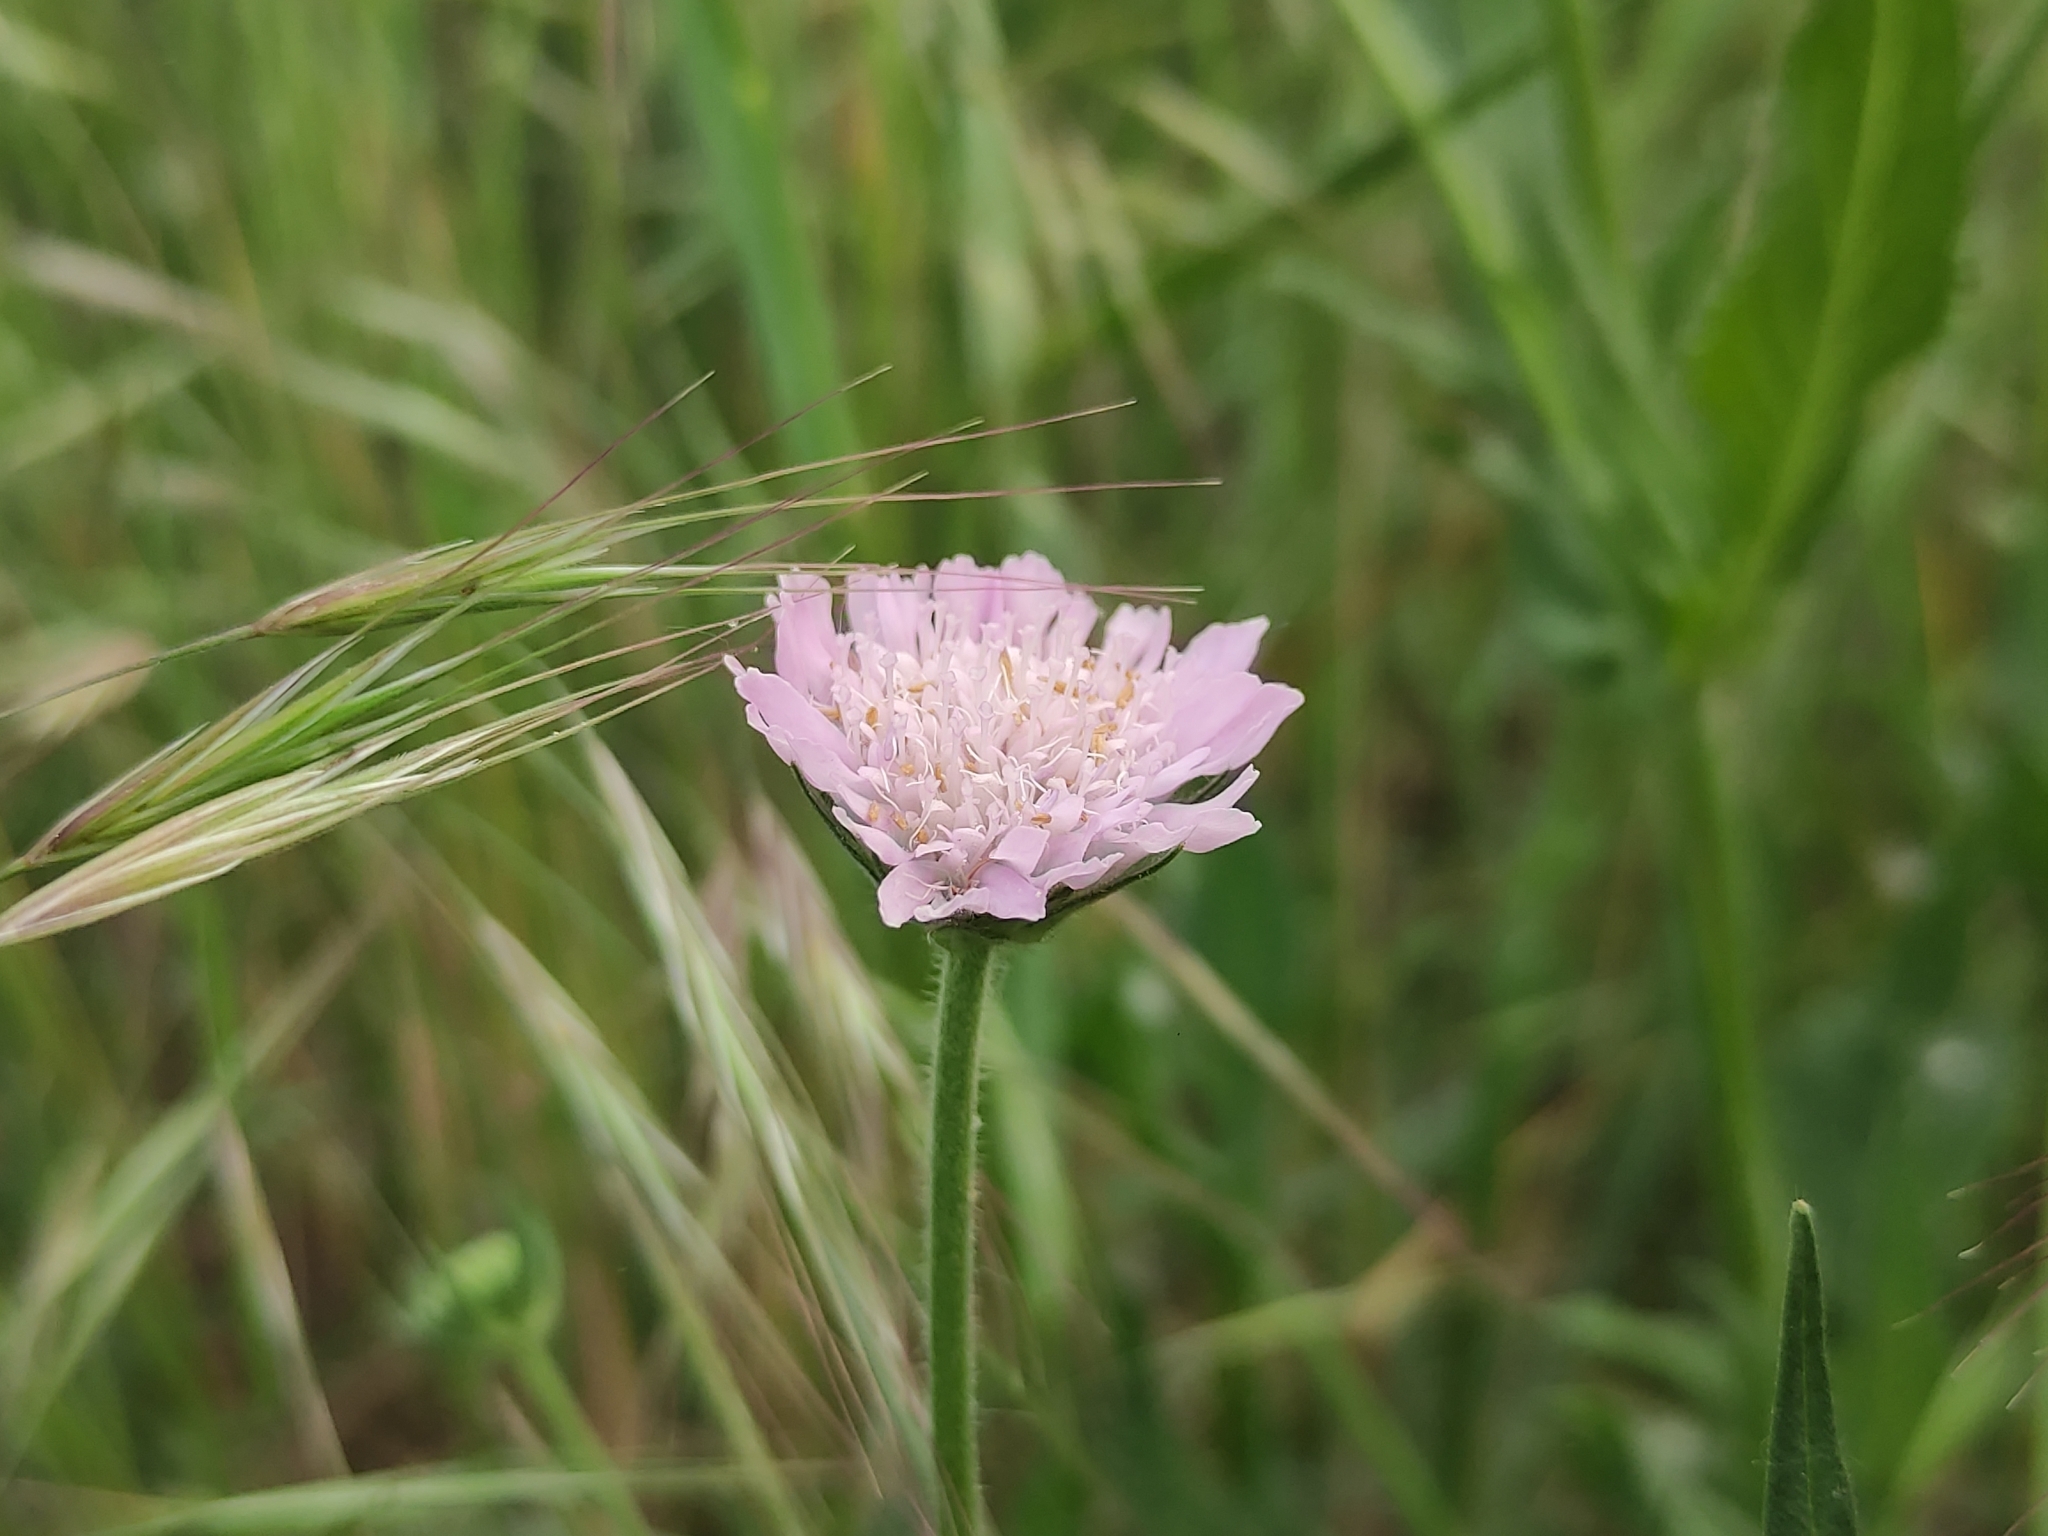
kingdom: Plantae
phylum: Tracheophyta
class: Magnoliopsida
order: Dipsacales
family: Caprifoliaceae
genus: Knautia
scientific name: Knautia integrifolia
